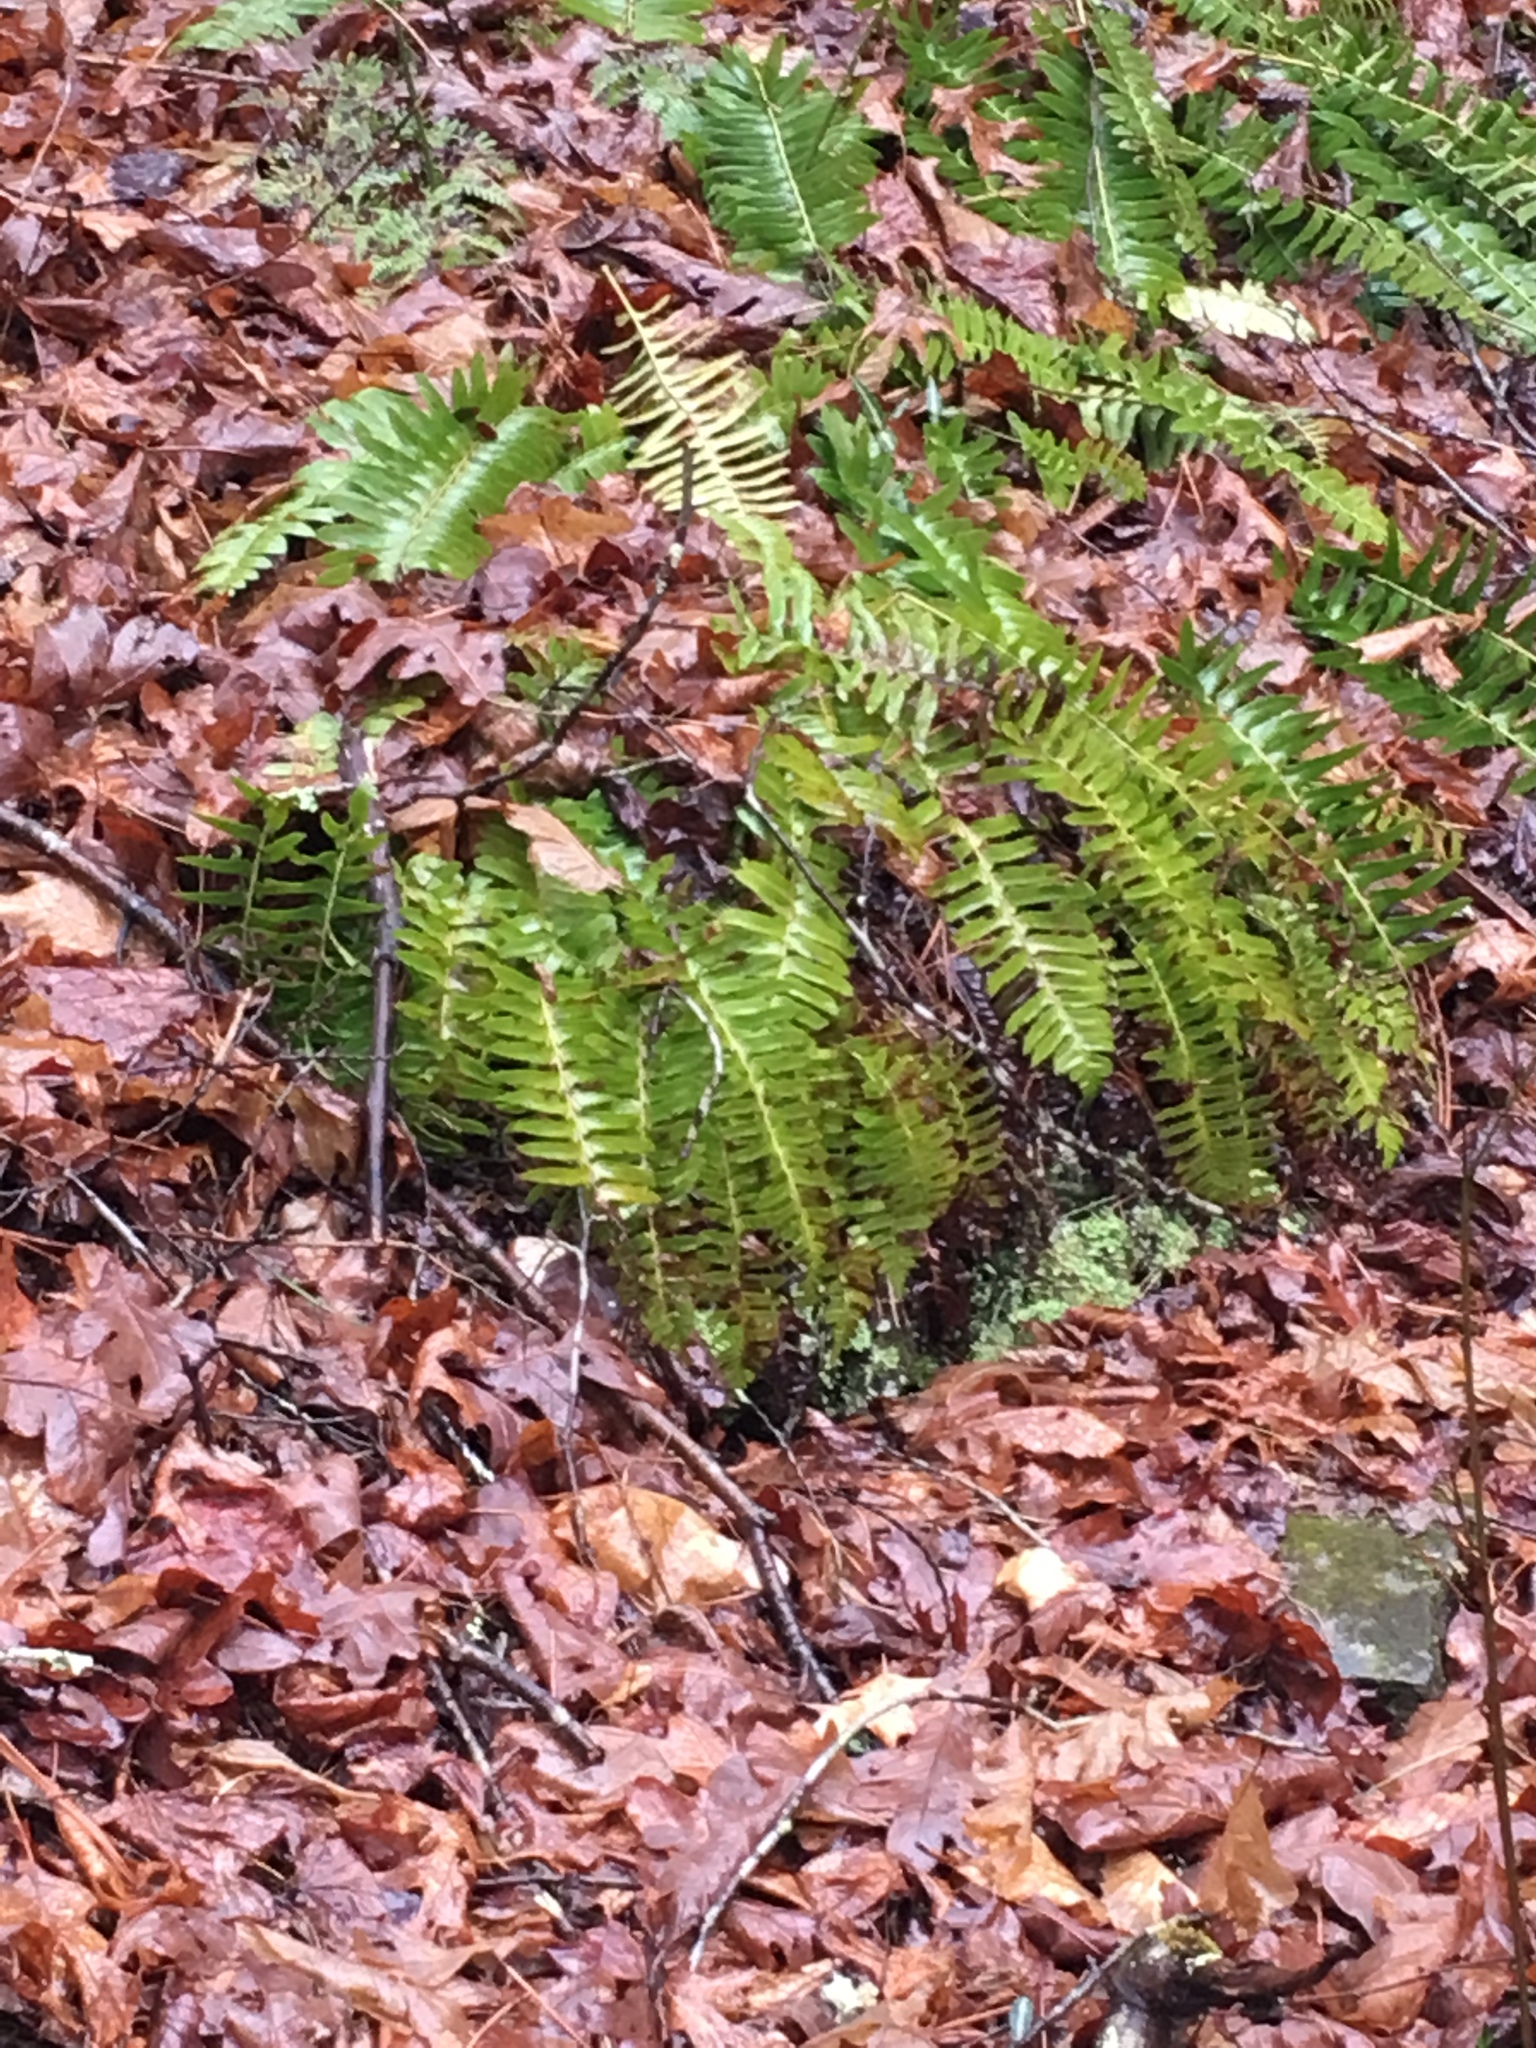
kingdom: Plantae
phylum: Tracheophyta
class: Polypodiopsida
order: Polypodiales
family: Dryopteridaceae
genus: Polystichum
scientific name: Polystichum acrostichoides
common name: Christmas fern
